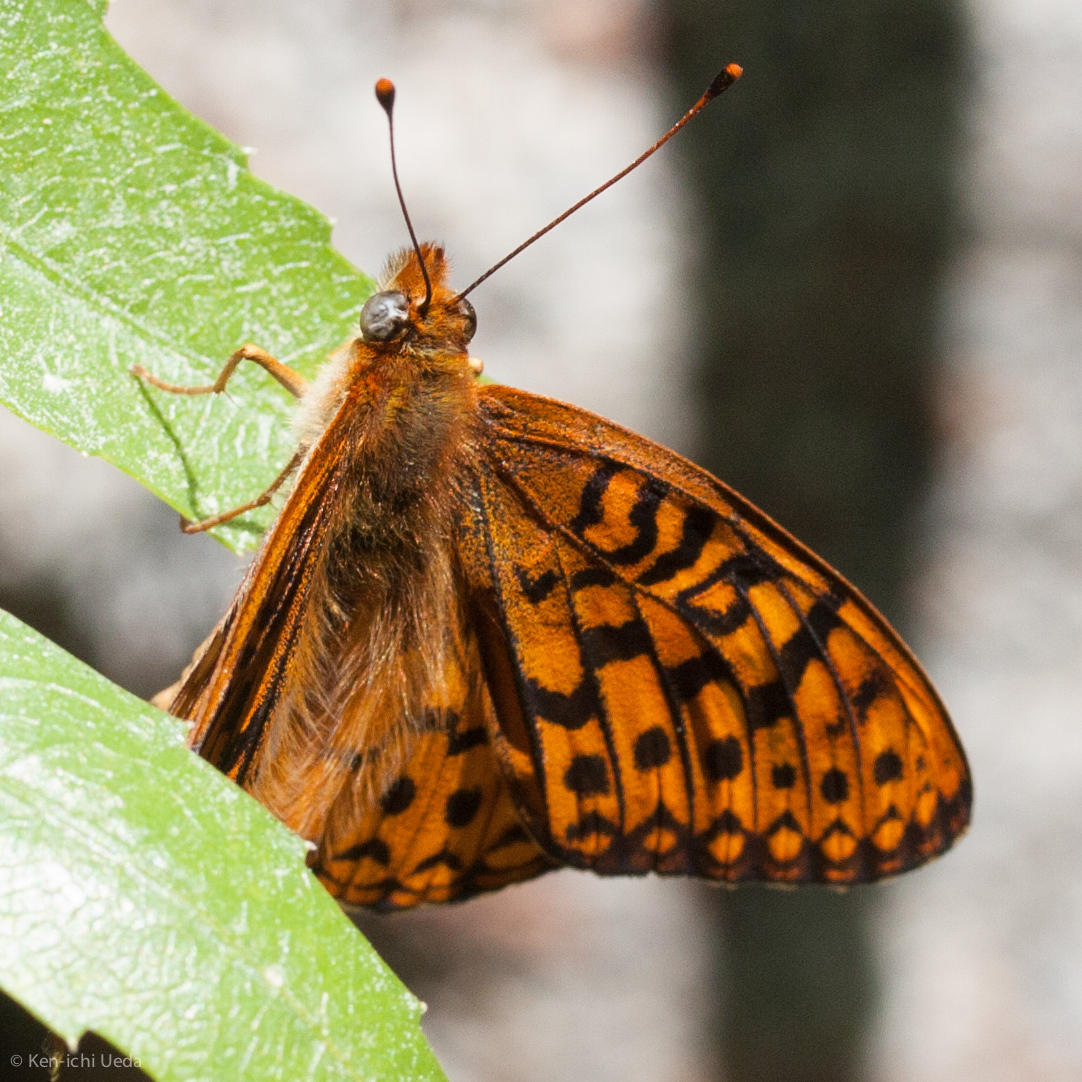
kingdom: Animalia
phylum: Arthropoda
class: Insecta
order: Lepidoptera
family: Nymphalidae
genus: Speyeria
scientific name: Speyeria atlantis
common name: Atlantis fritillary
